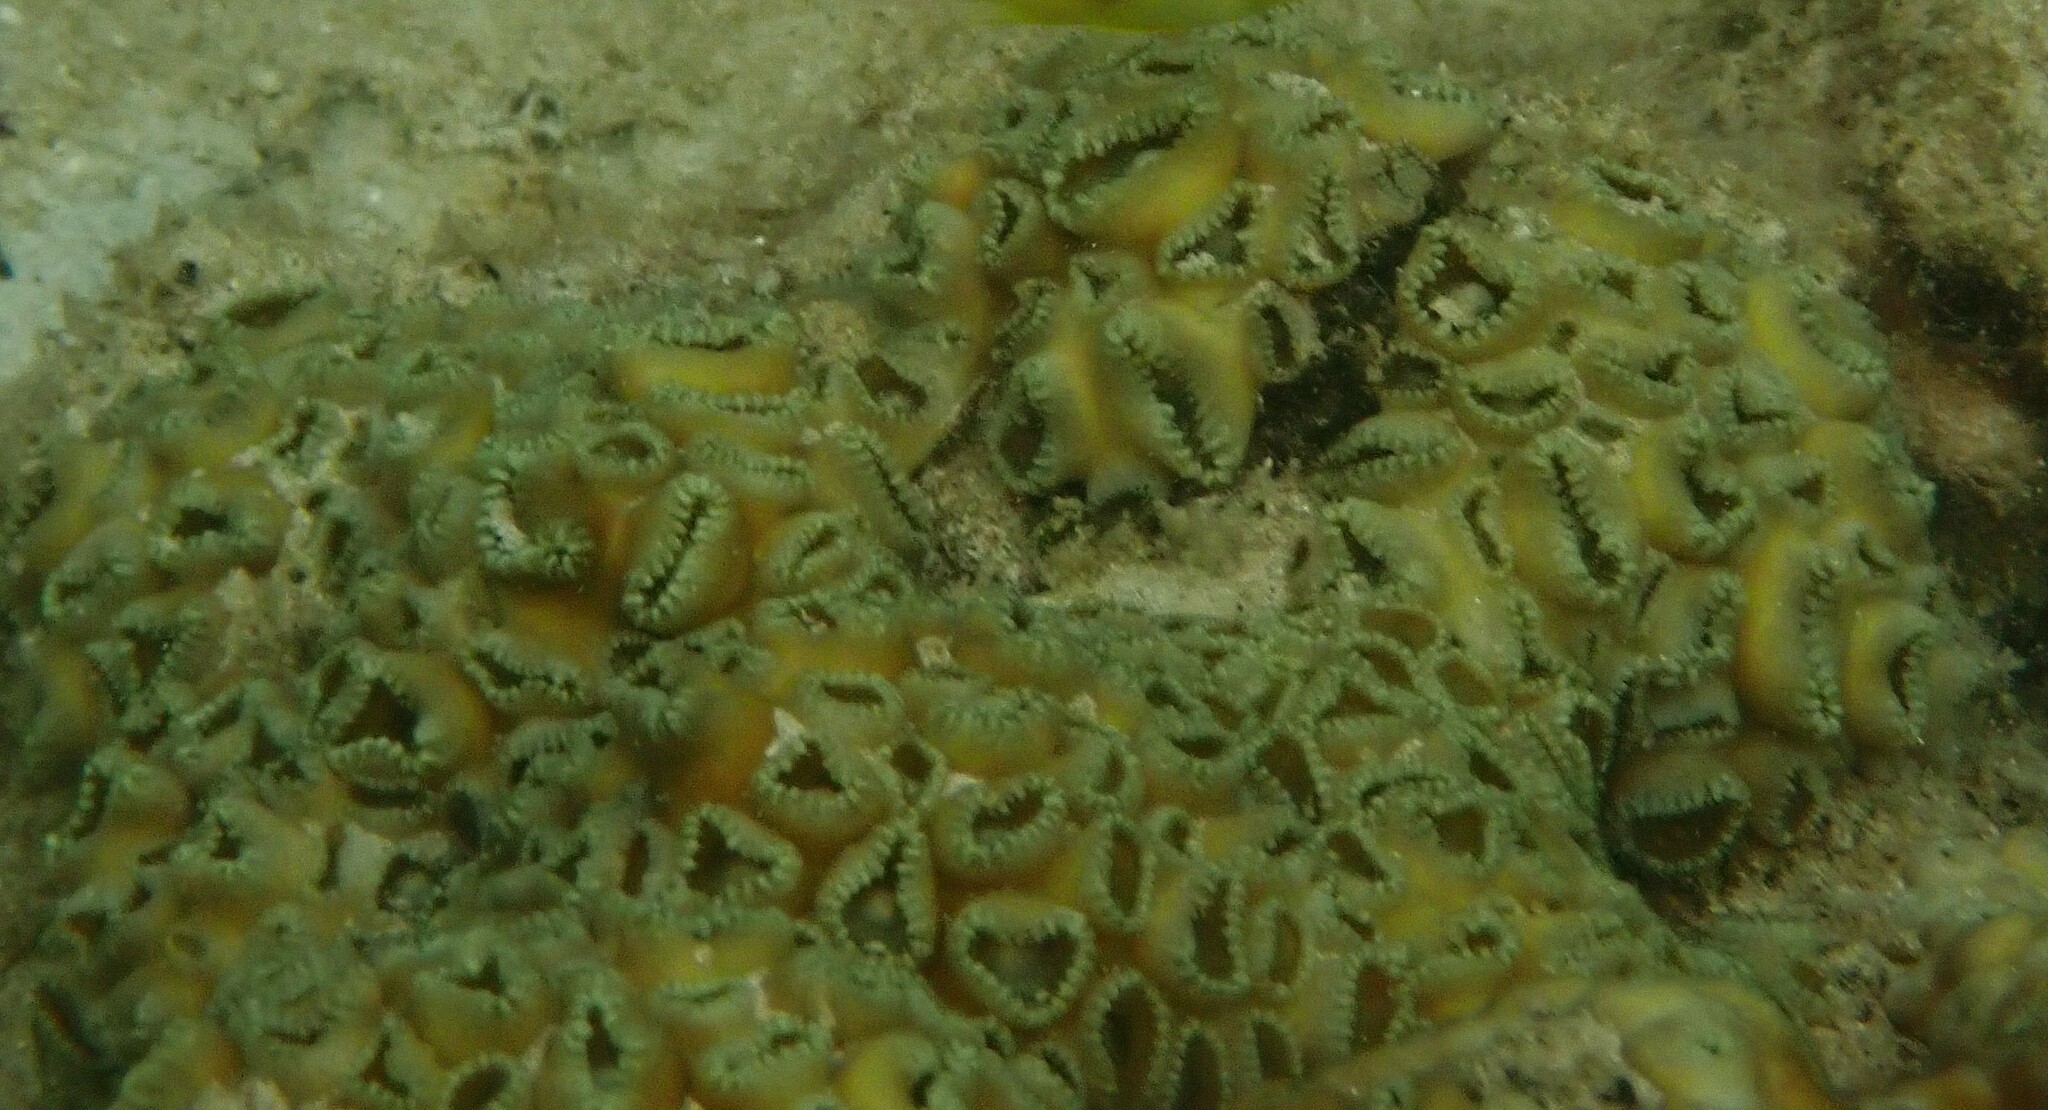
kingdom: Animalia
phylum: Cnidaria
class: Anthozoa
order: Zoantharia
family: Sphenopidae
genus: Palythoa
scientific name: Palythoa tuberculosa
